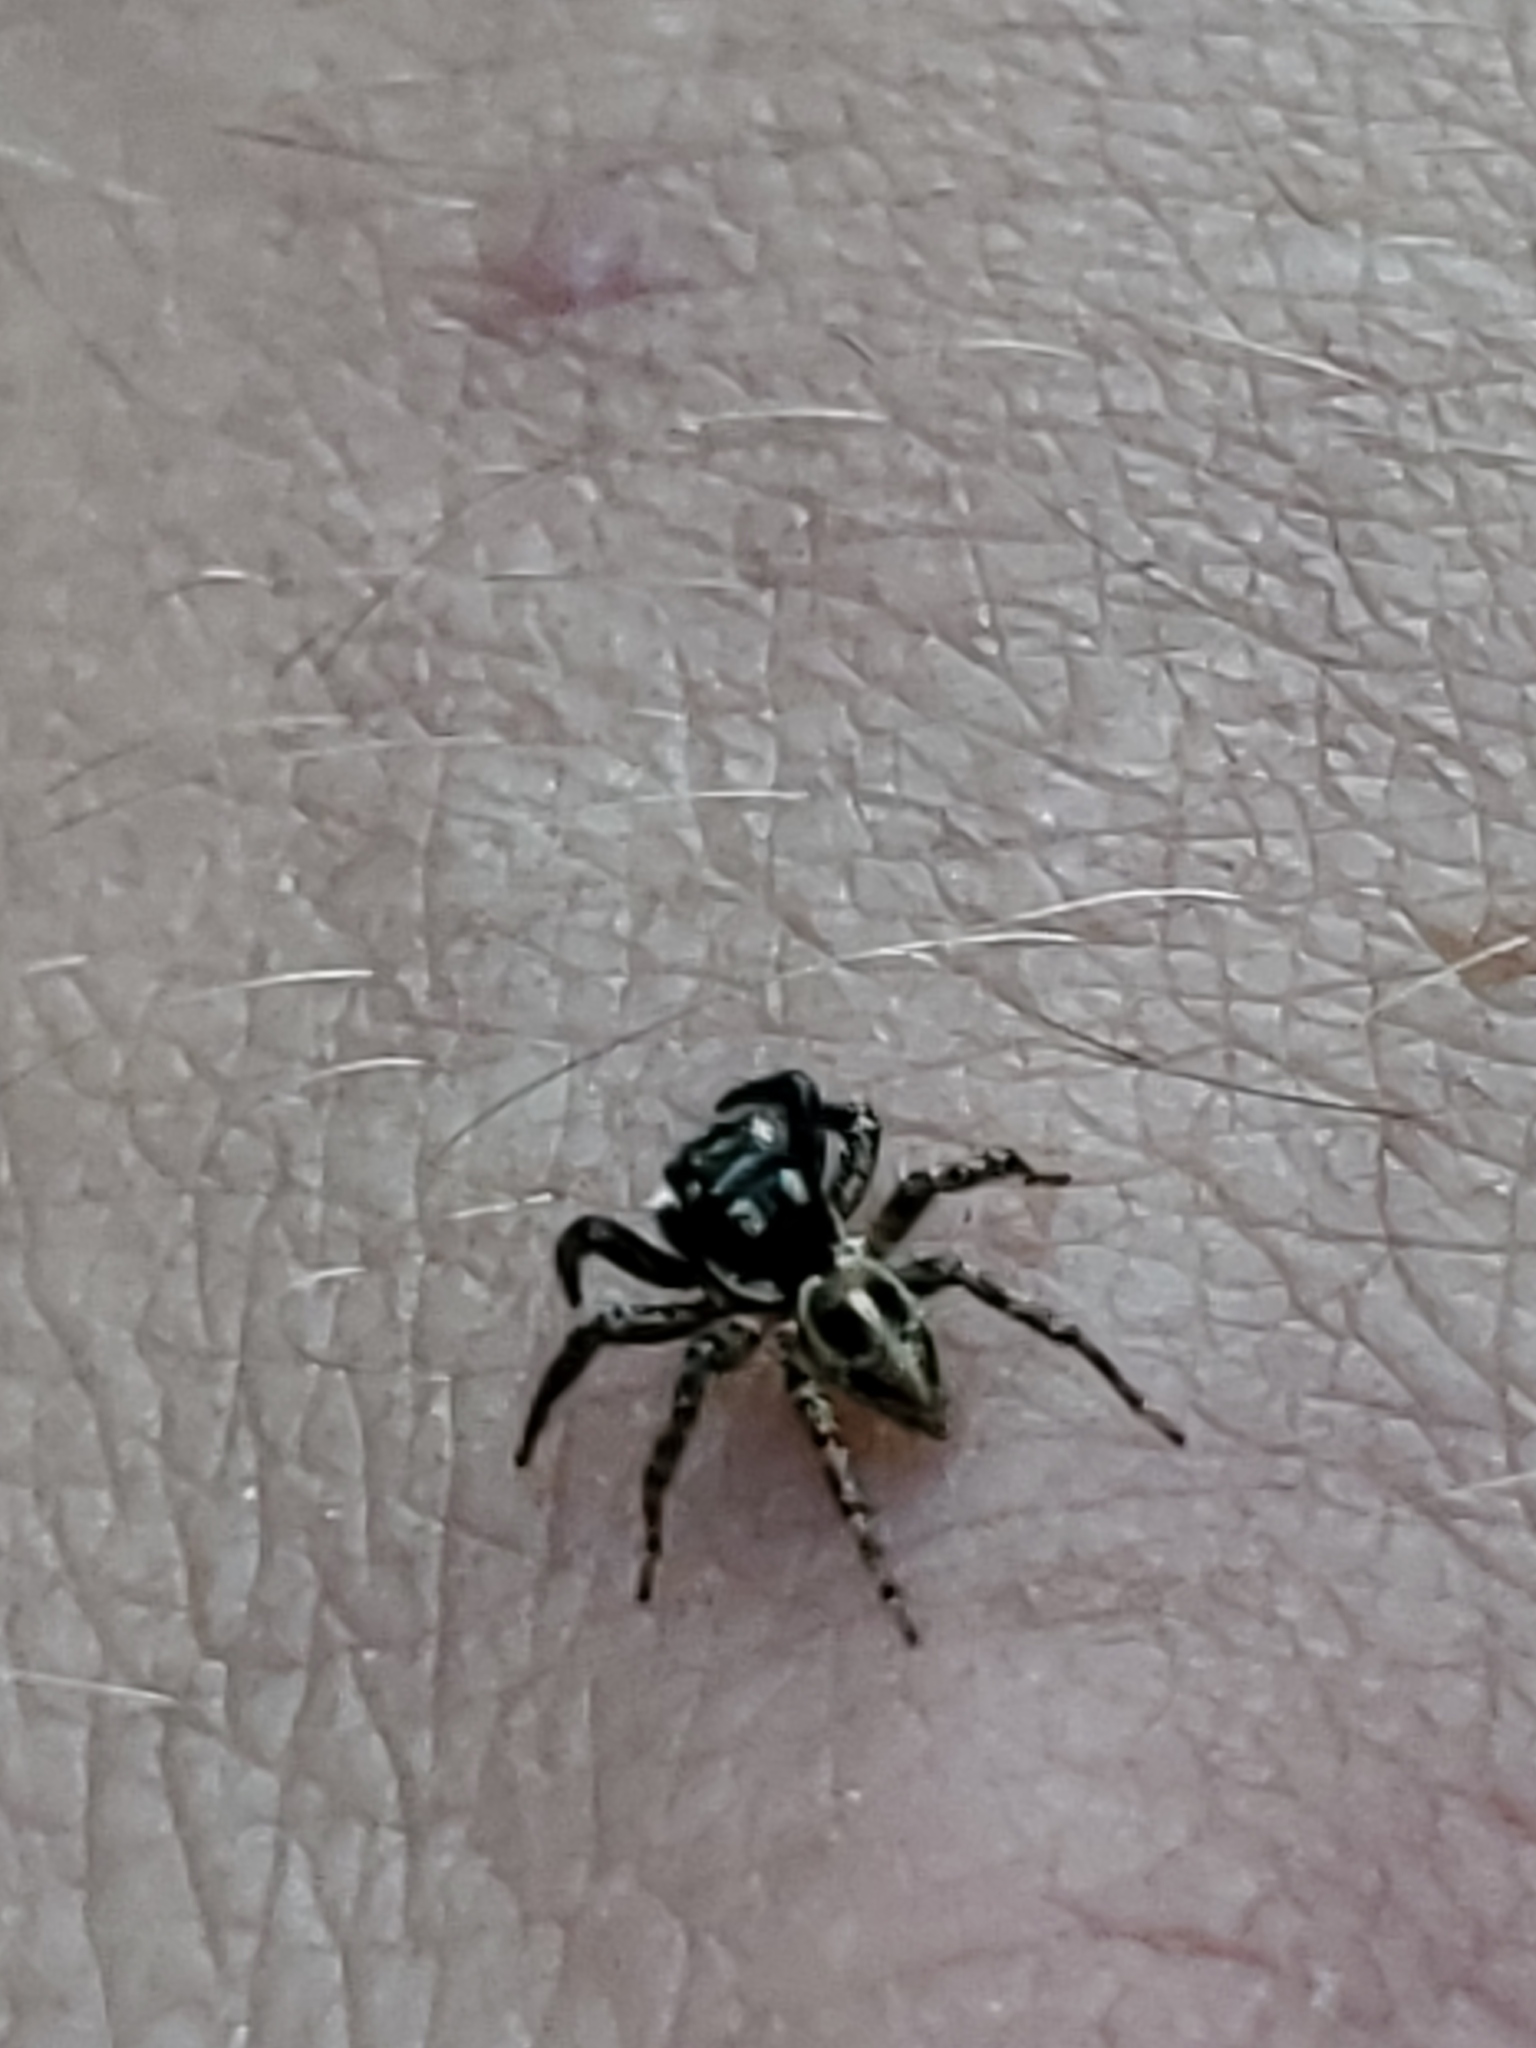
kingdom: Animalia
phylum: Arthropoda
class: Arachnida
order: Araneae
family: Salticidae
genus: Anasaitis
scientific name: Anasaitis canosa
